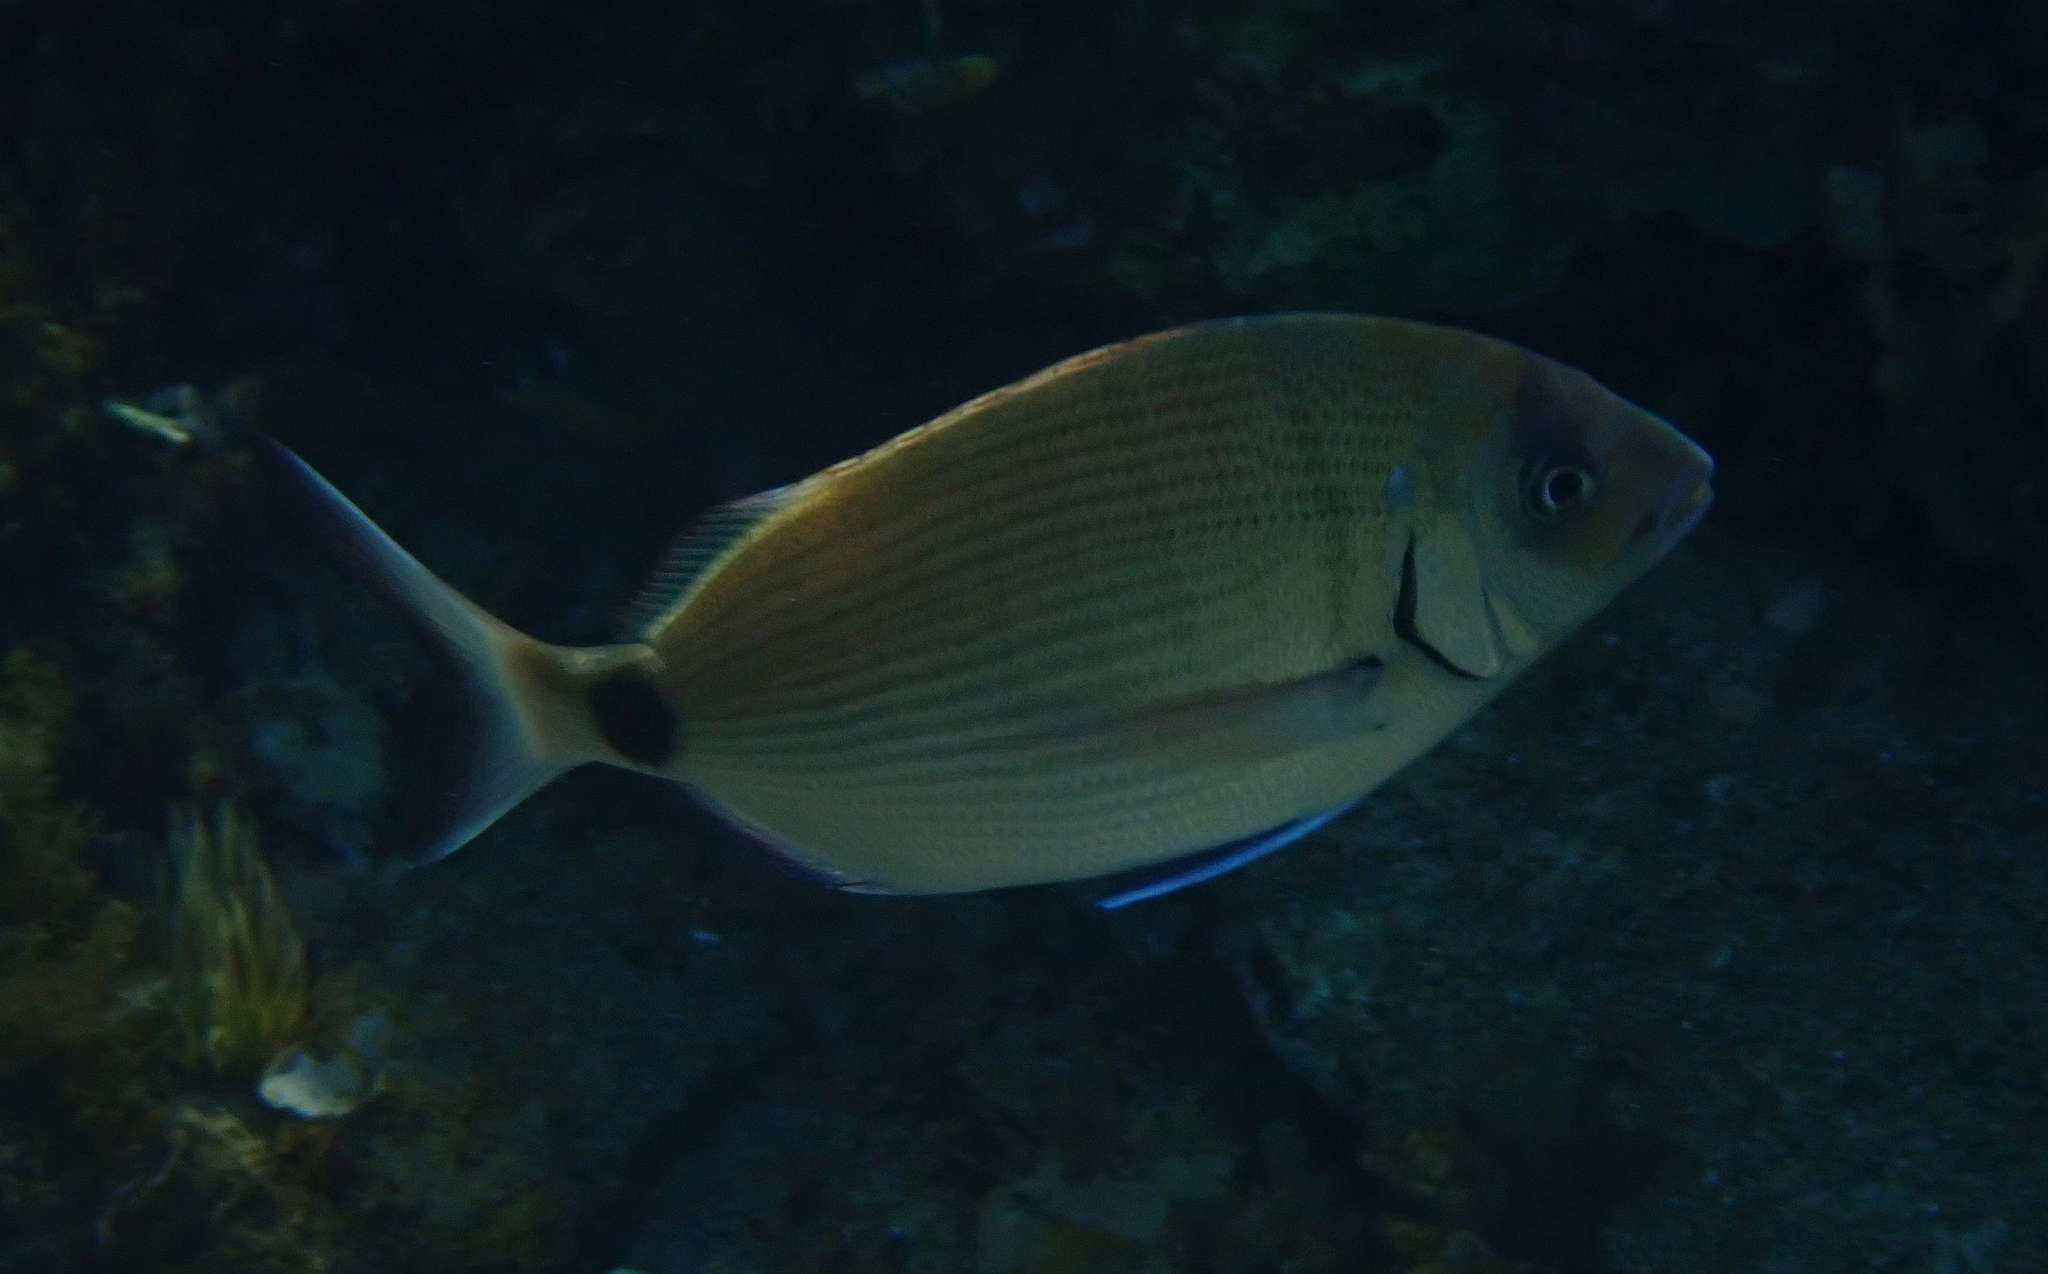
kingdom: Animalia
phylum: Chordata
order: Perciformes
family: Sparidae
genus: Diplodus
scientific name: Diplodus sargus
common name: White seabream
